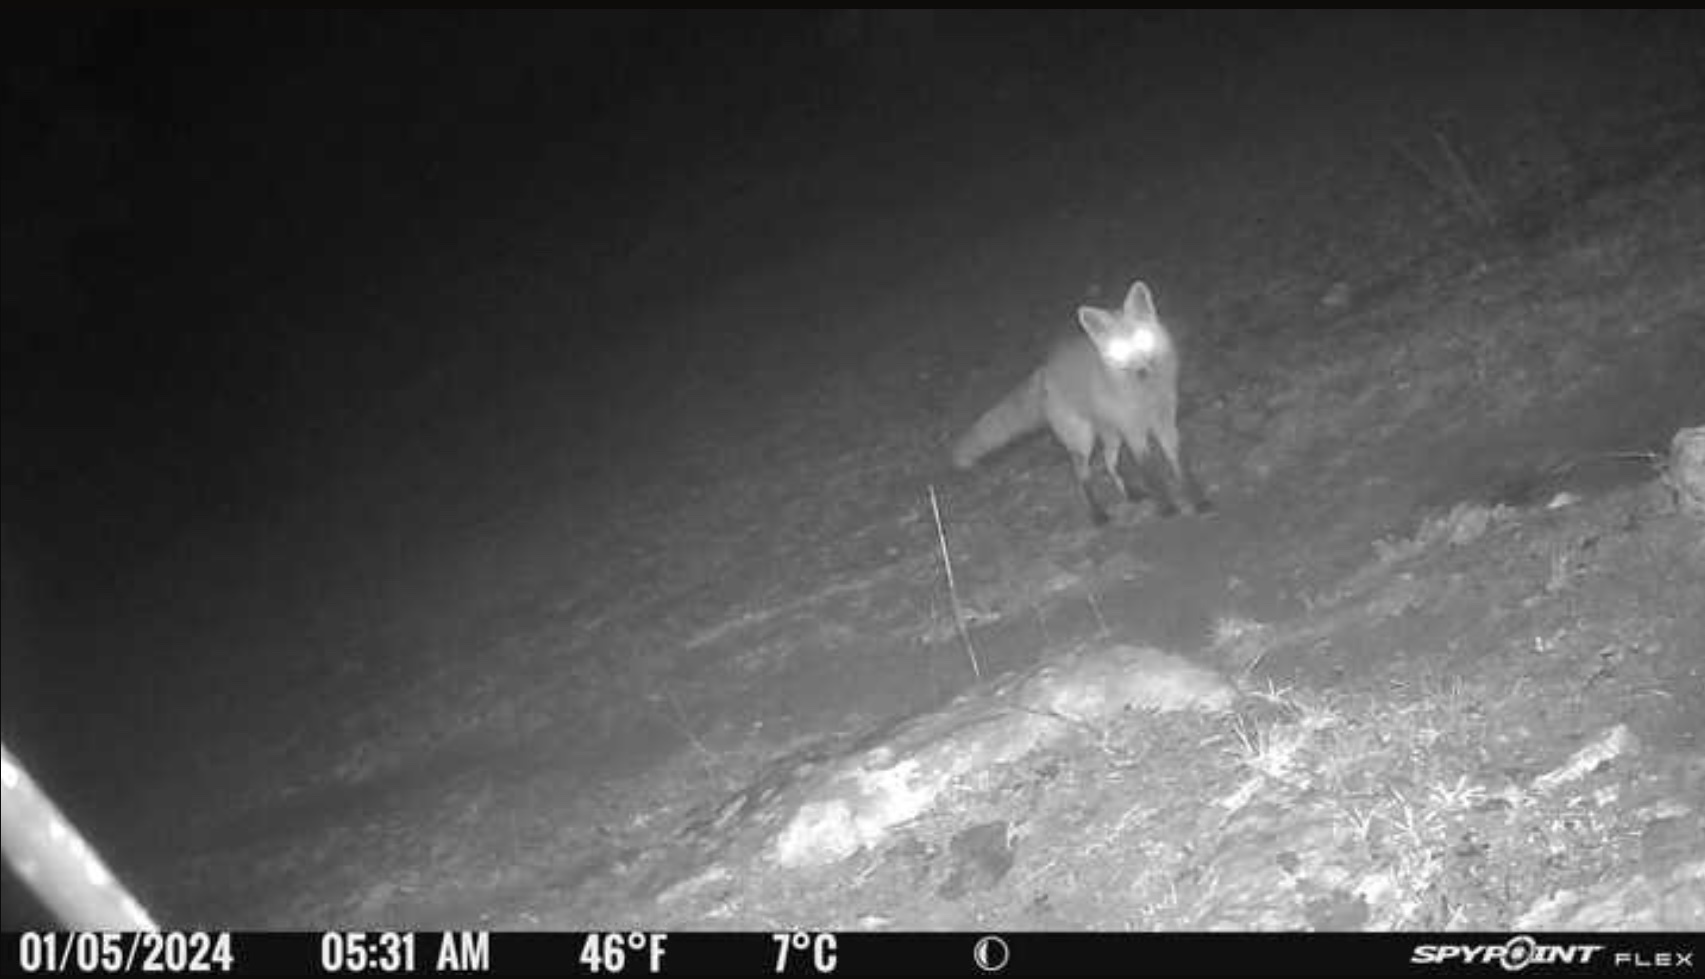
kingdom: Animalia
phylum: Chordata
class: Mammalia
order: Carnivora
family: Canidae
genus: Vulpes
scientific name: Vulpes vulpes
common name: Red fox
